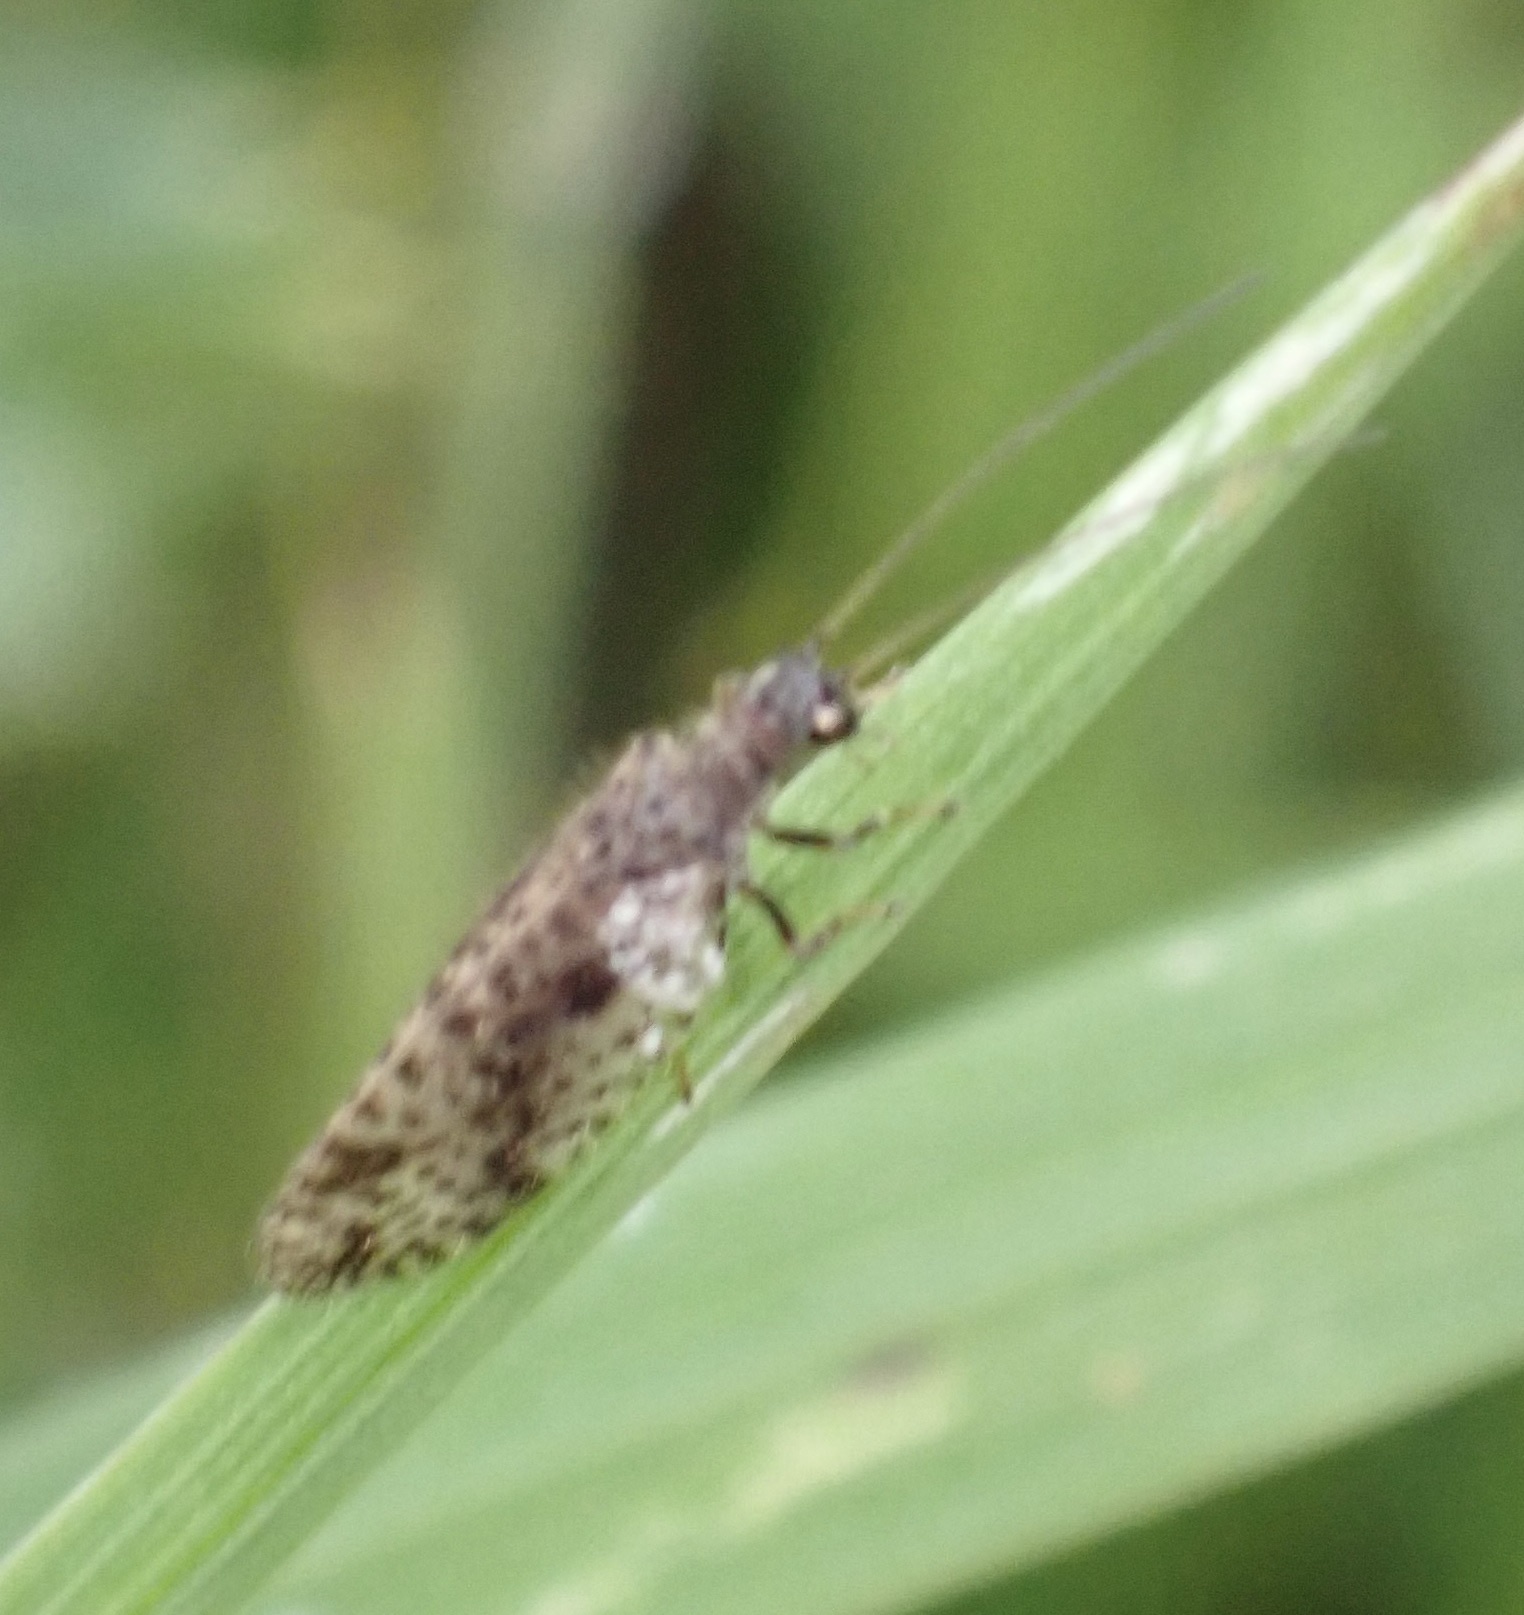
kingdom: Animalia
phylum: Arthropoda
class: Insecta
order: Neuroptera
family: Hemerobiidae
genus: Micromus
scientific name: Micromus variegatus
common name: Brown lacewing
